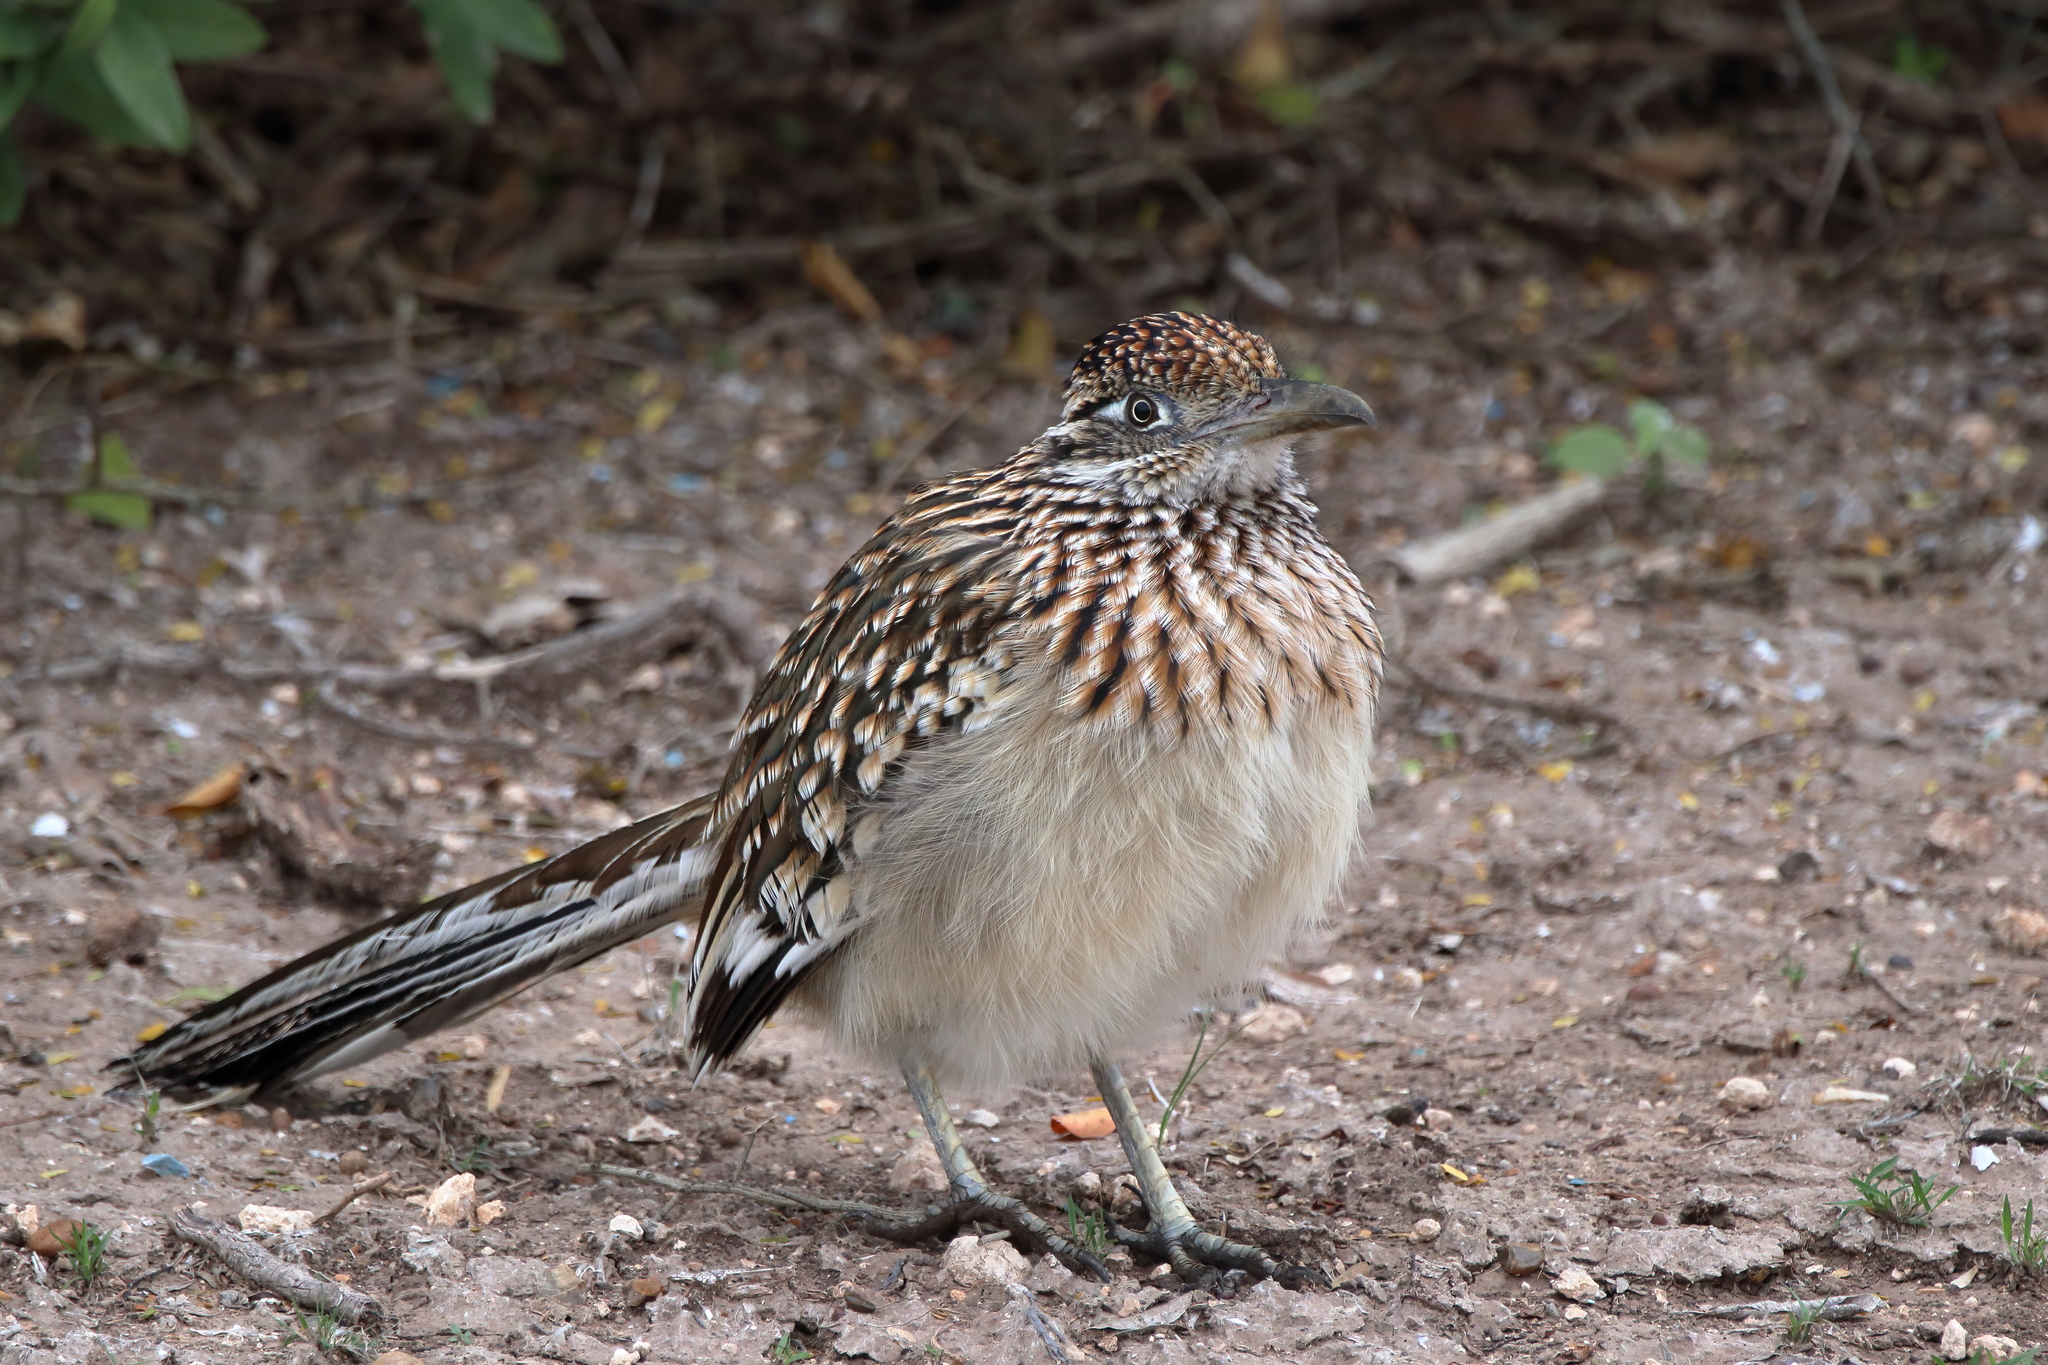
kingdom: Animalia
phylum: Chordata
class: Aves
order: Cuculiformes
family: Cuculidae
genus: Geococcyx
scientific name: Geococcyx californianus
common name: Greater roadrunner
